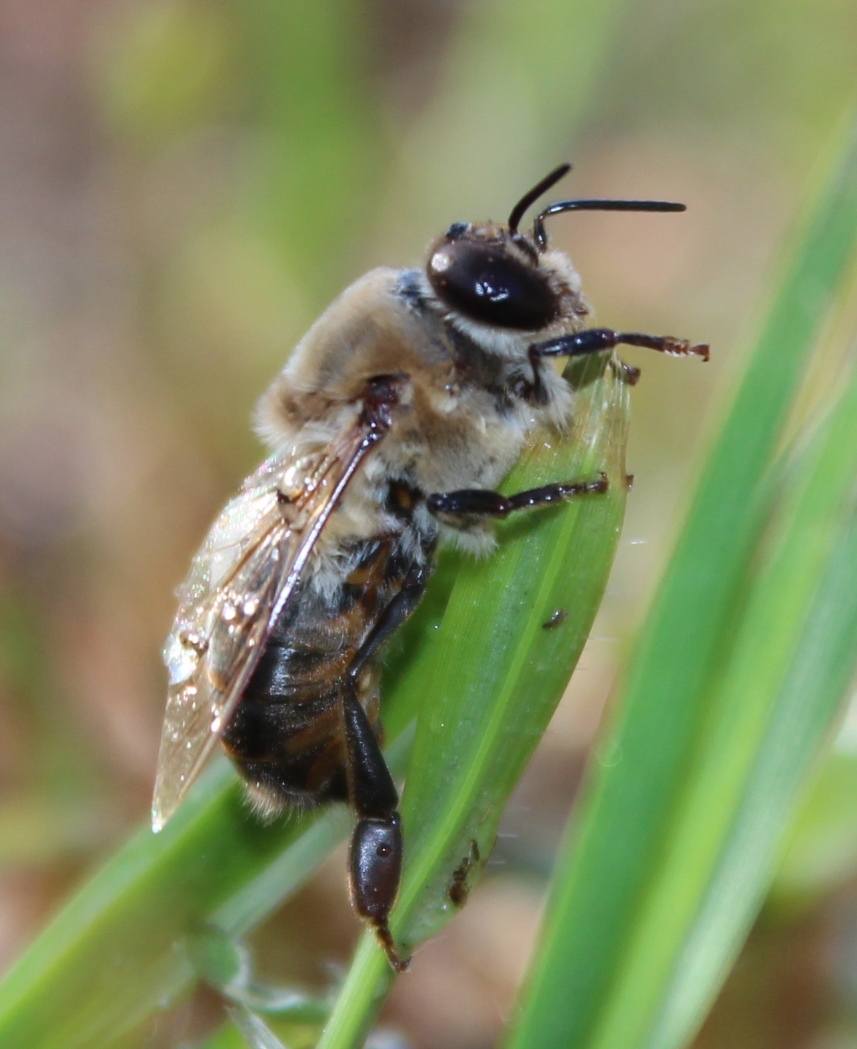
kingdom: Animalia
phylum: Arthropoda
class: Insecta
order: Hymenoptera
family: Apidae
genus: Apis
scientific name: Apis mellifera
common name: Honey bee
